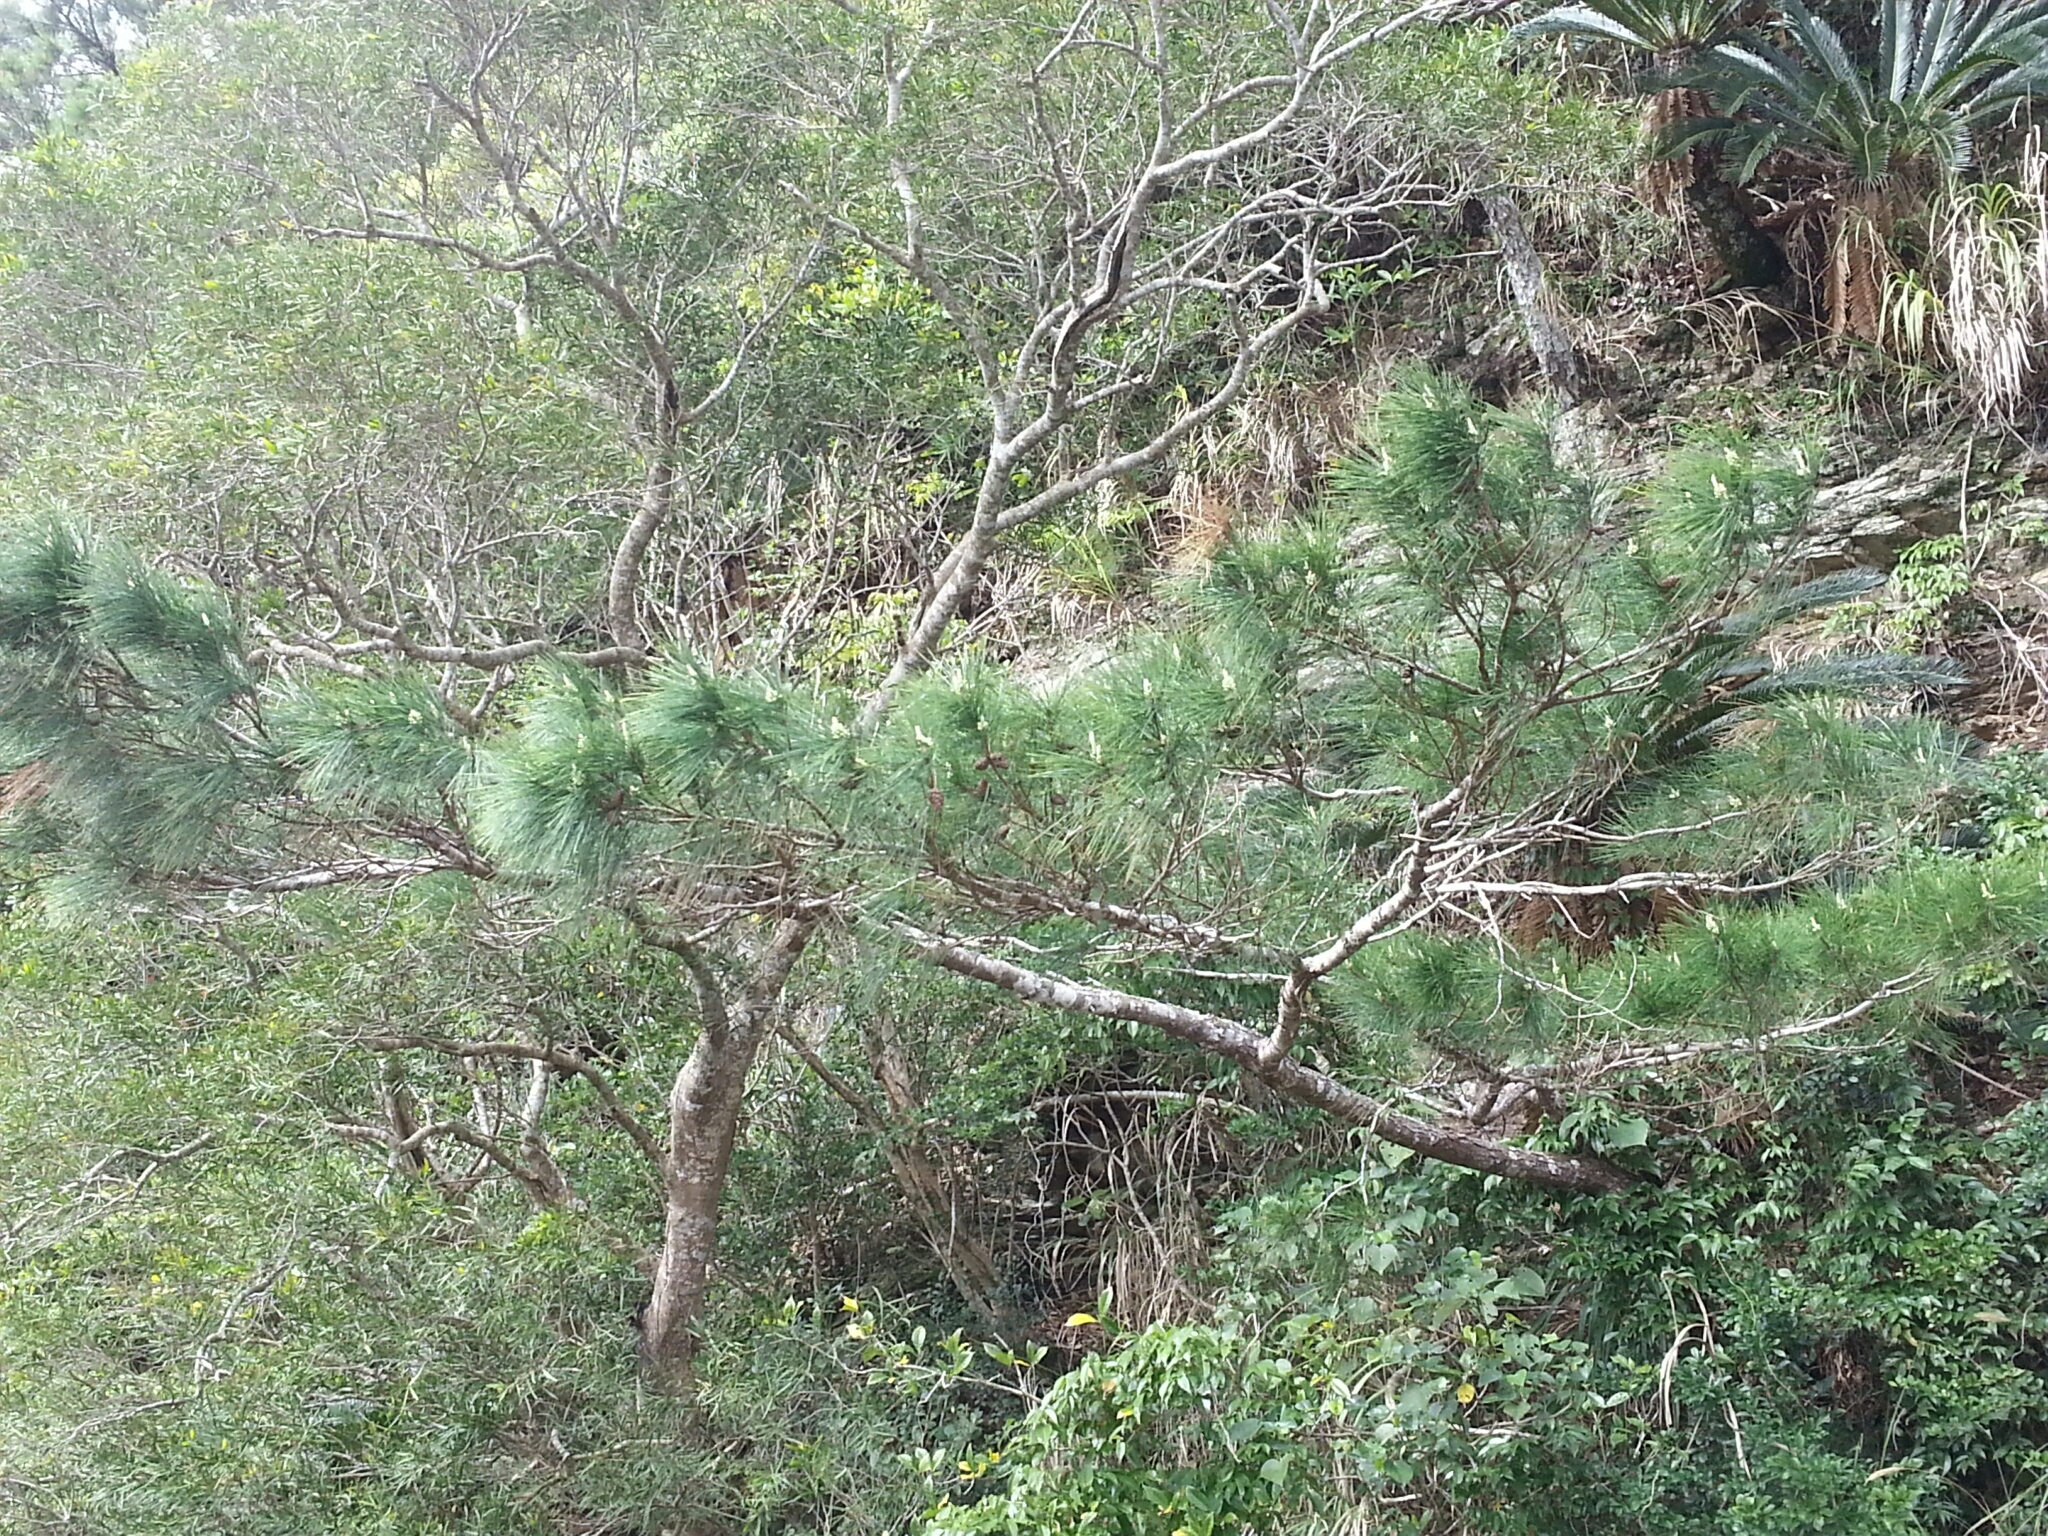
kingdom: Plantae
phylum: Tracheophyta
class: Pinopsida
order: Pinales
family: Pinaceae
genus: Pinus
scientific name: Pinus luchuensis
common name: Luchu pine
